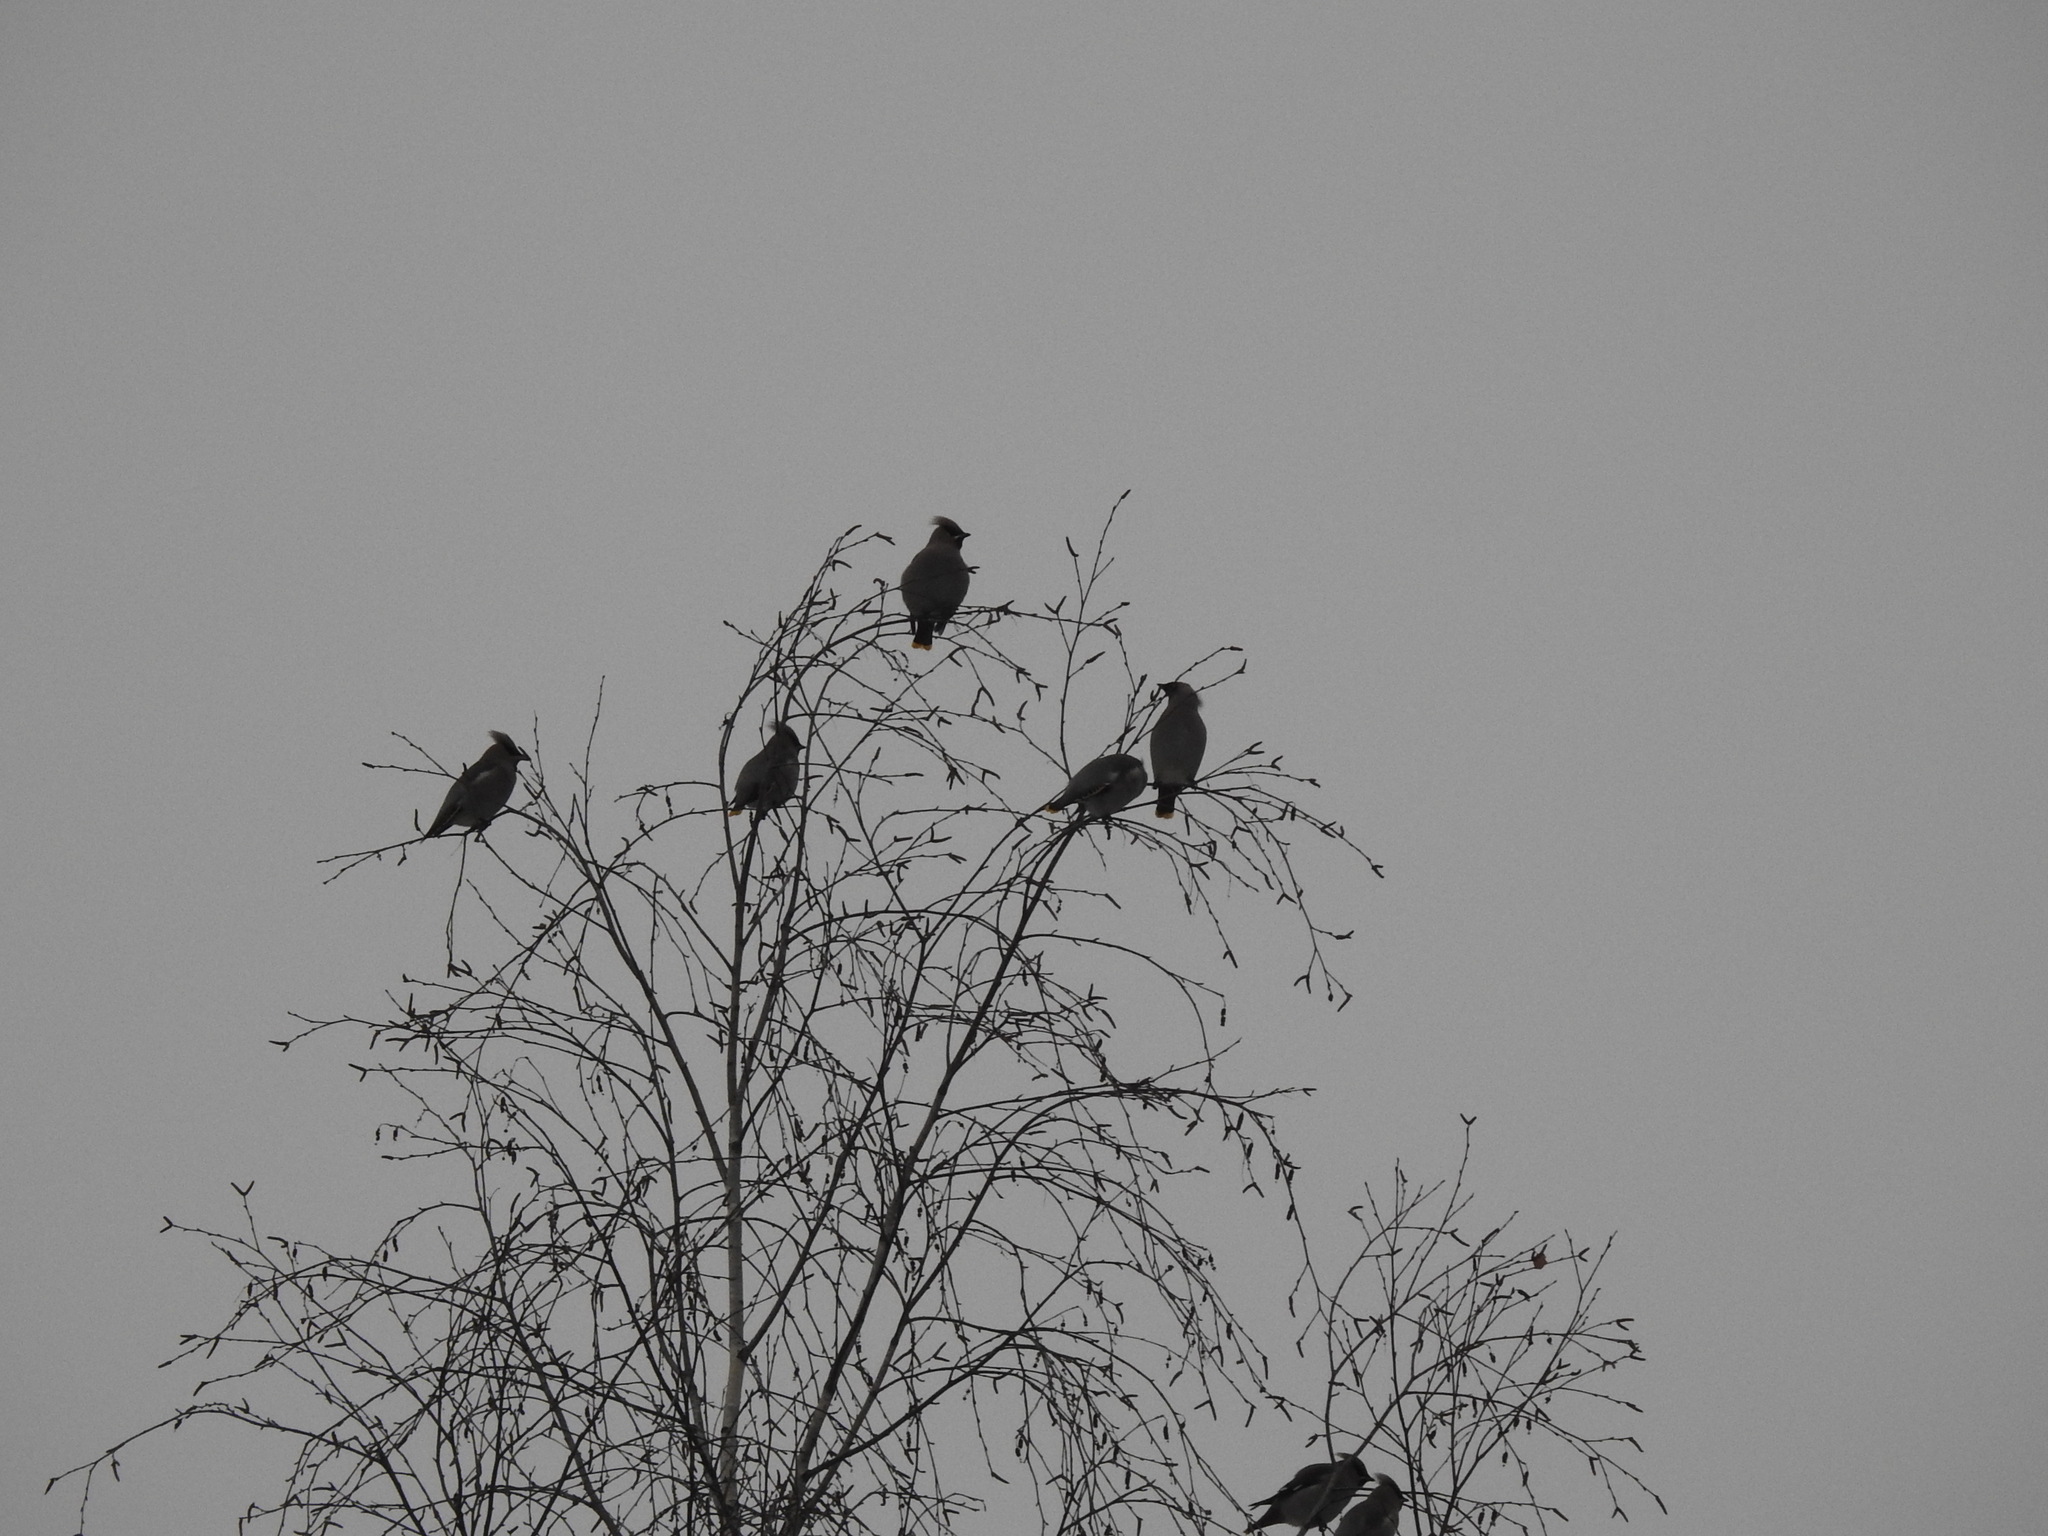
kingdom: Animalia
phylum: Chordata
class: Aves
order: Passeriformes
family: Bombycillidae
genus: Bombycilla
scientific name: Bombycilla garrulus
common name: Bohemian waxwing
